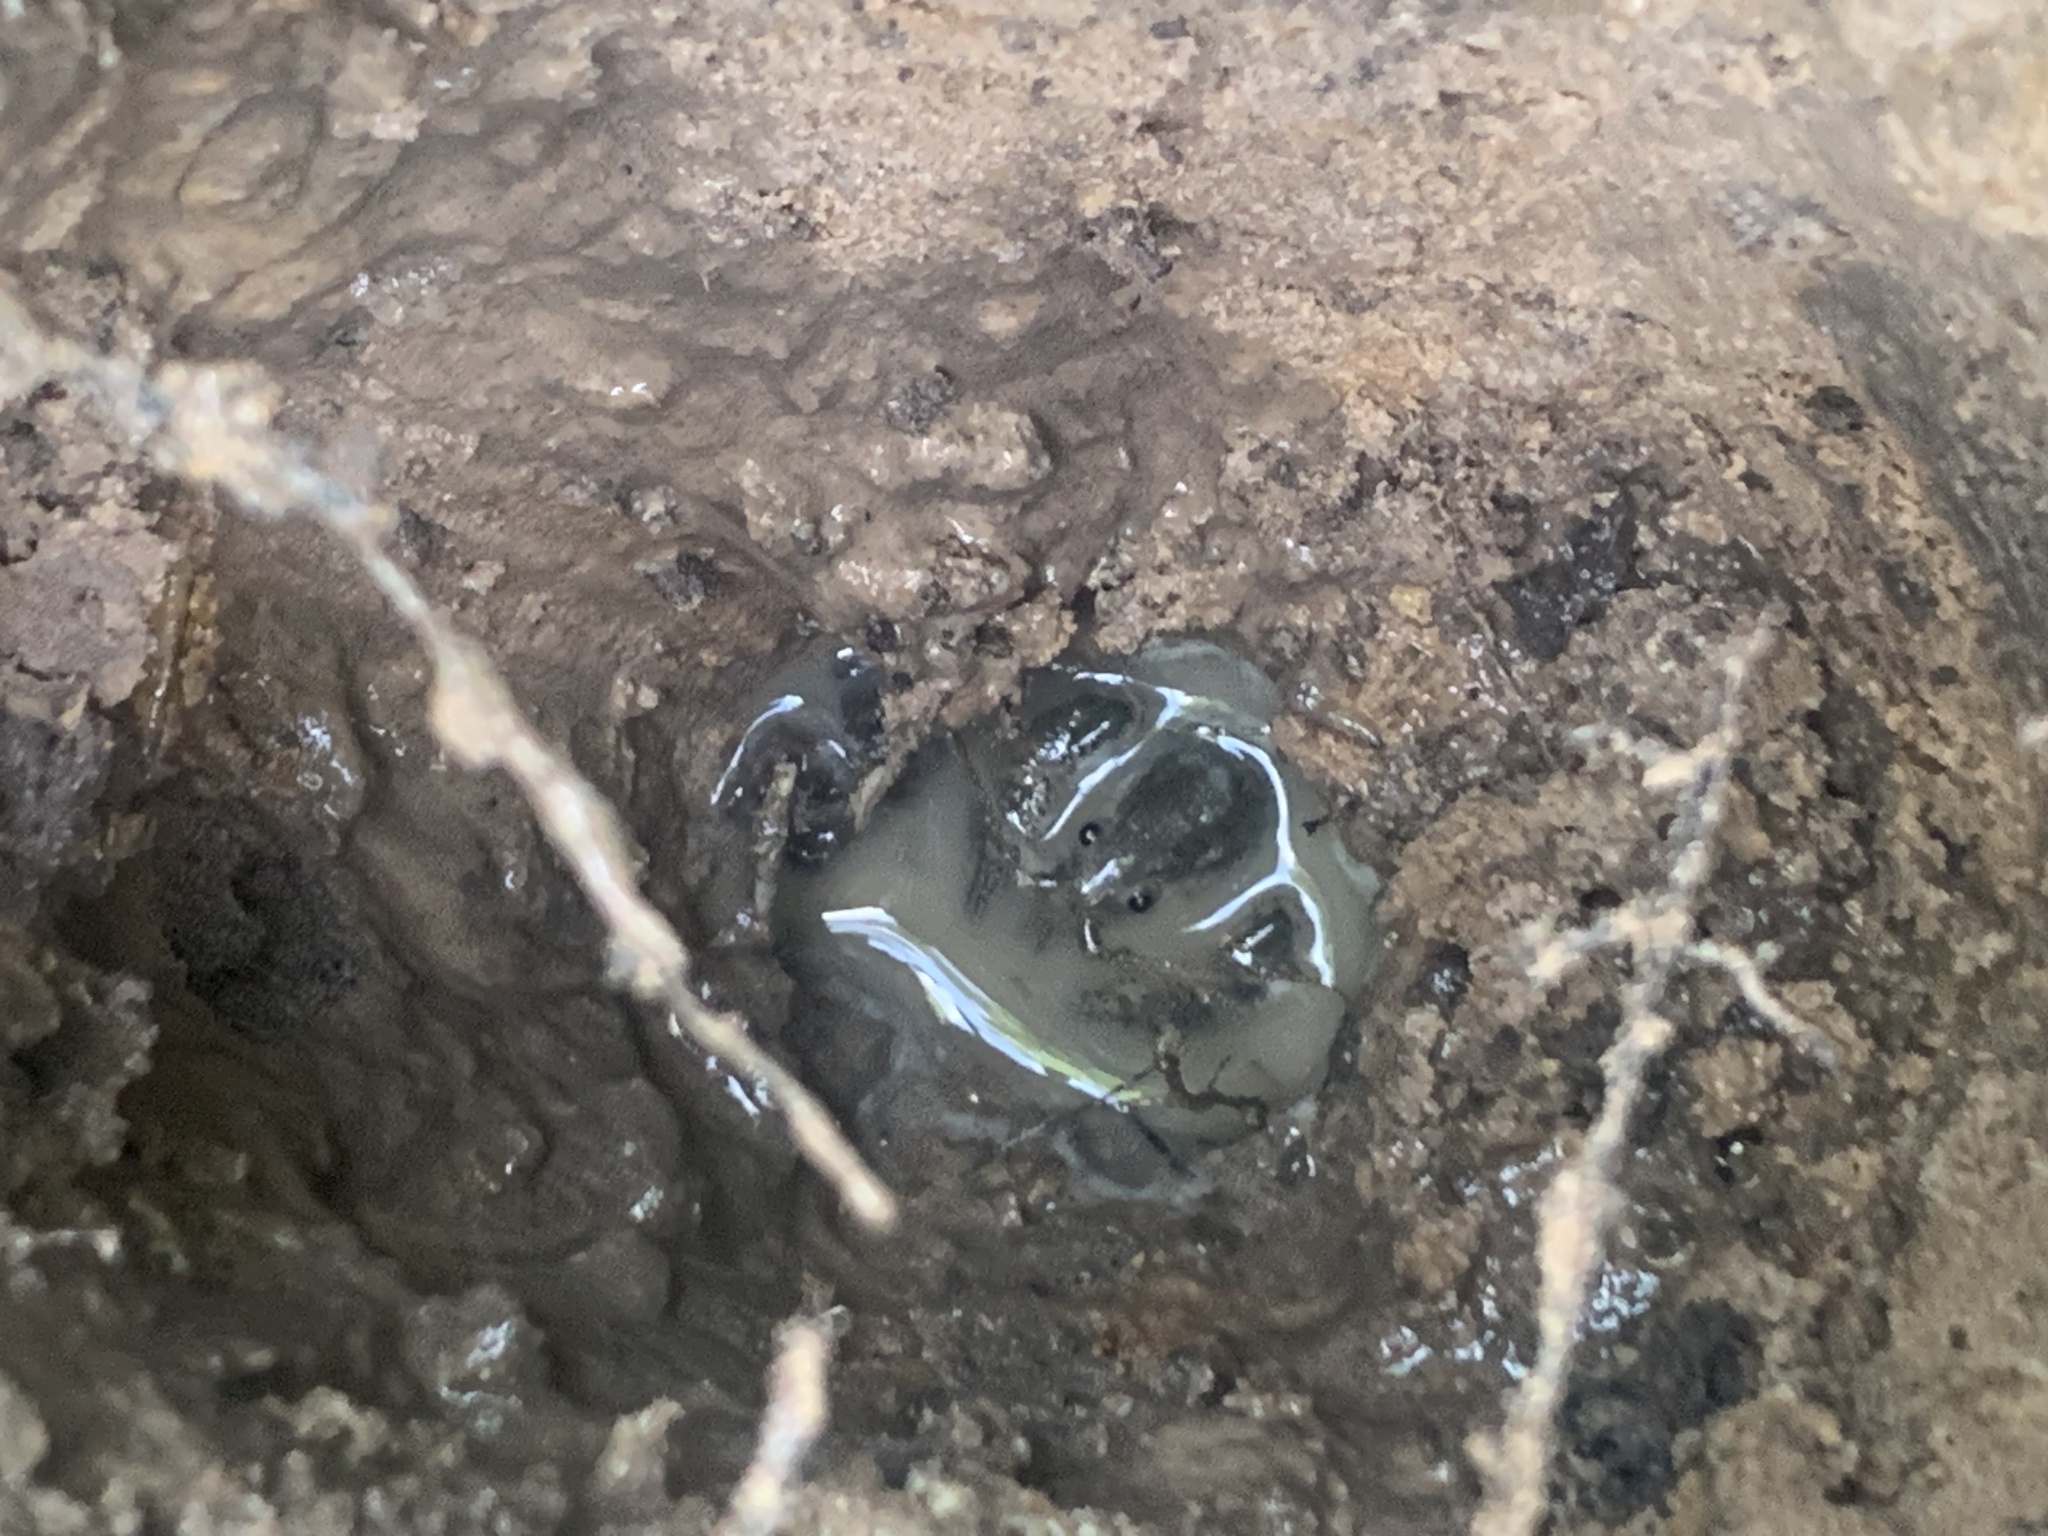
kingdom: Animalia
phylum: Arthropoda
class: Malacostraca
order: Decapoda
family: Cambaridae
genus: Fallicambarus
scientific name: Fallicambarus houstonensis
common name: Houston burrowing crayfish
